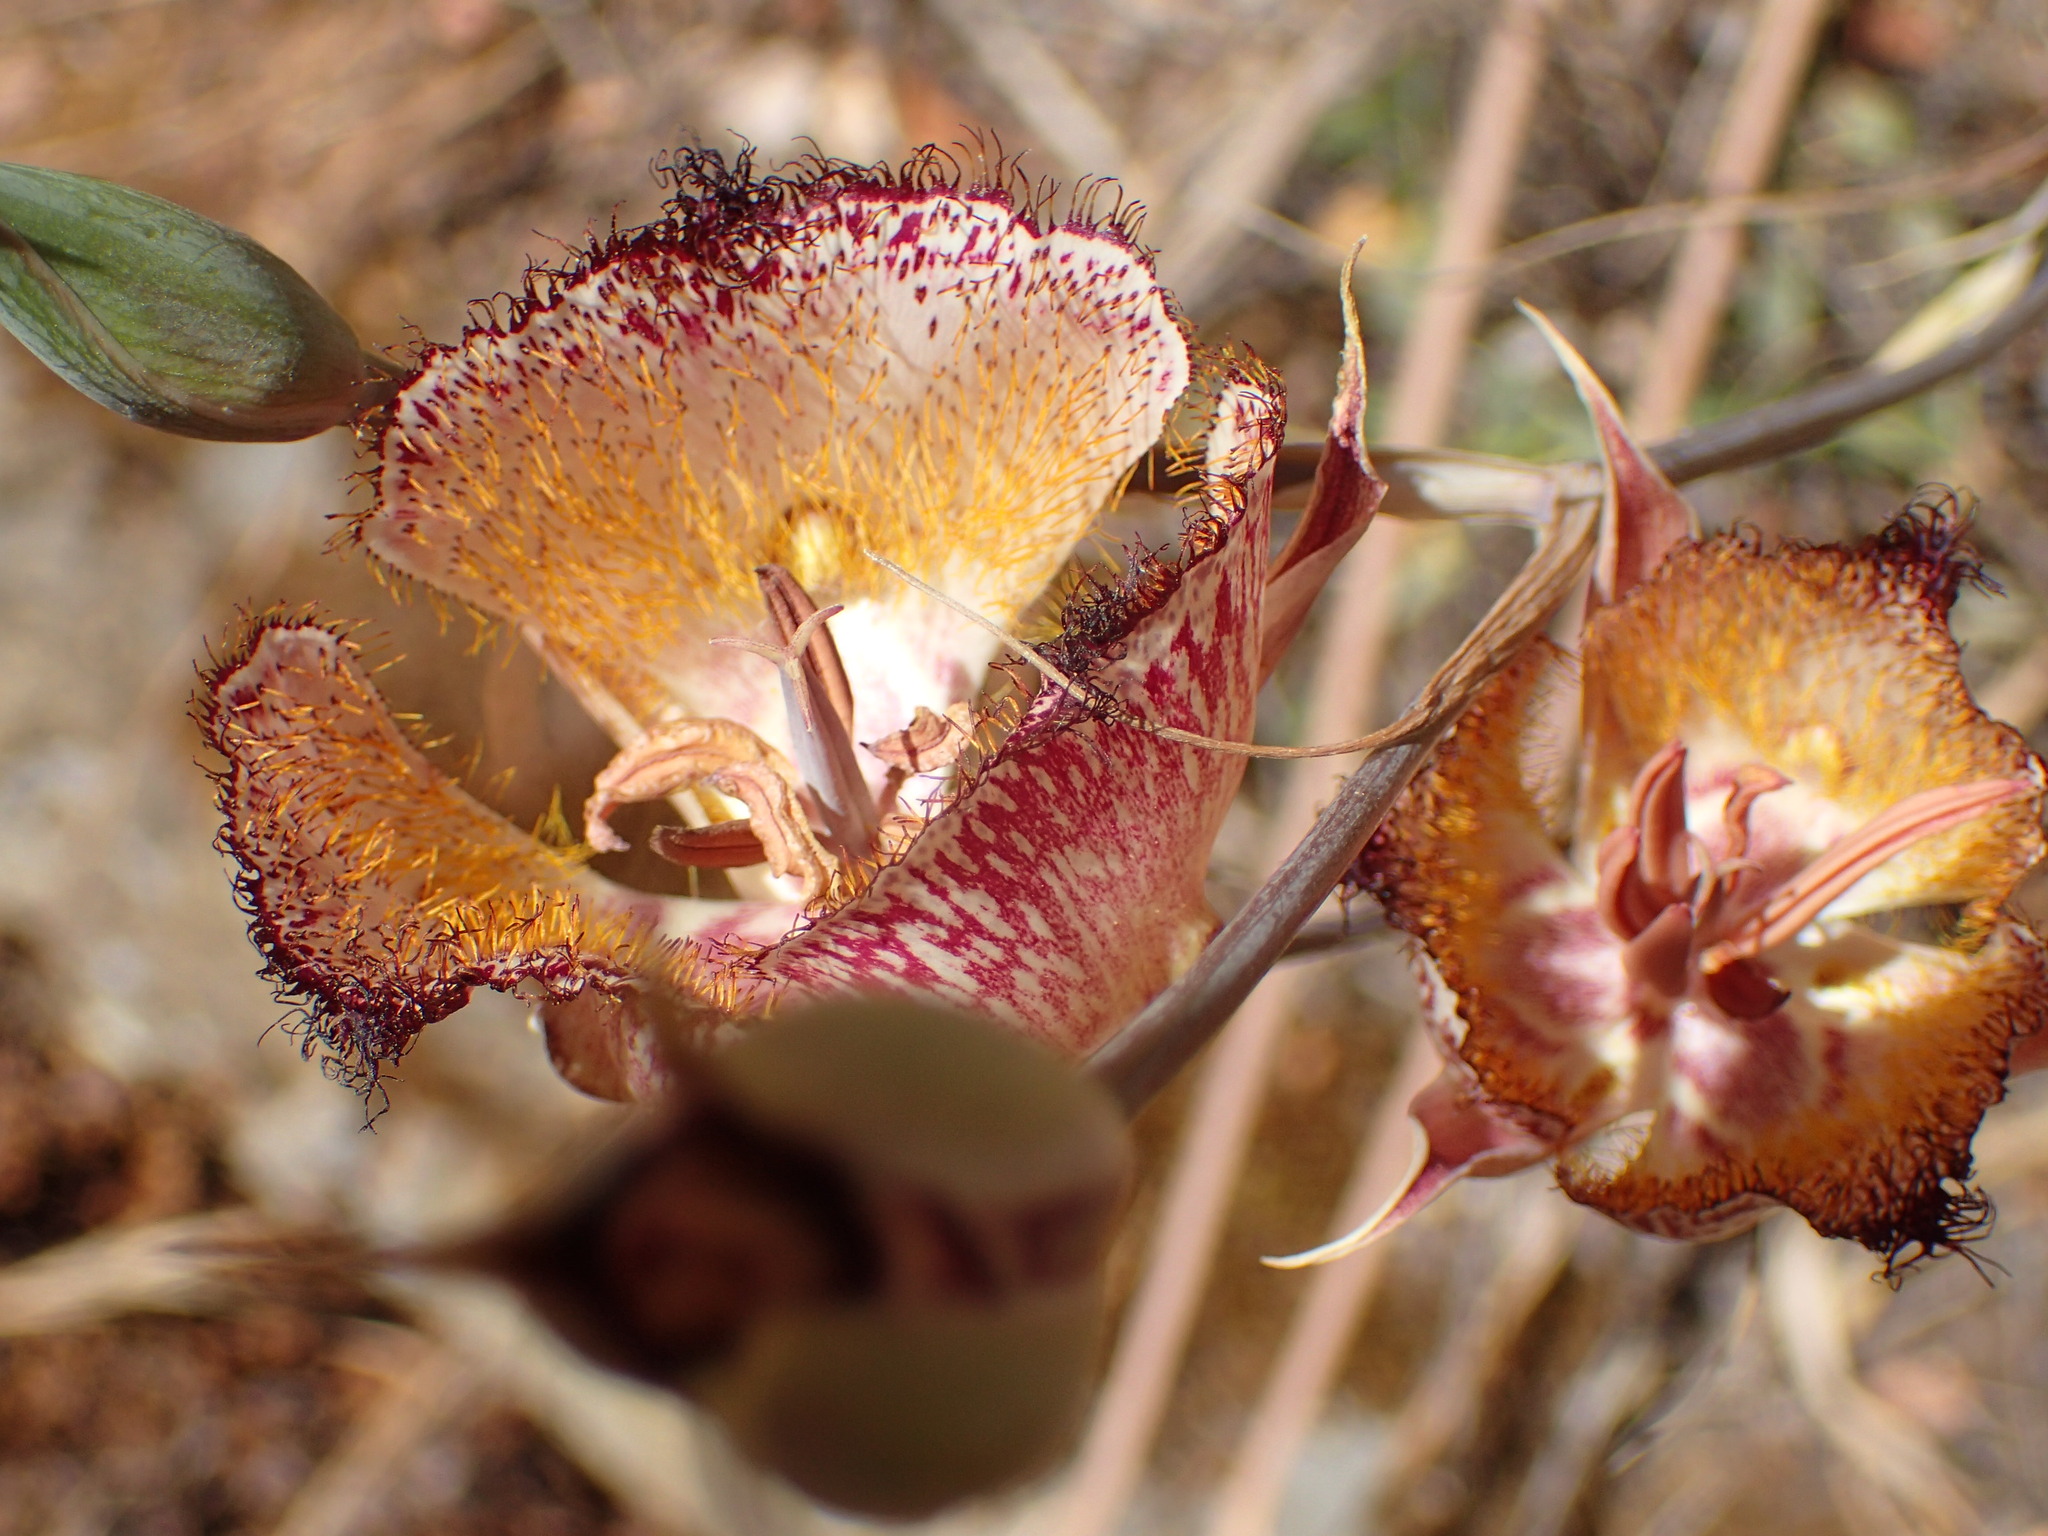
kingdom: Plantae
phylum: Tracheophyta
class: Liliopsida
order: Liliales
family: Liliaceae
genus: Calochortus
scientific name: Calochortus fimbriatus
